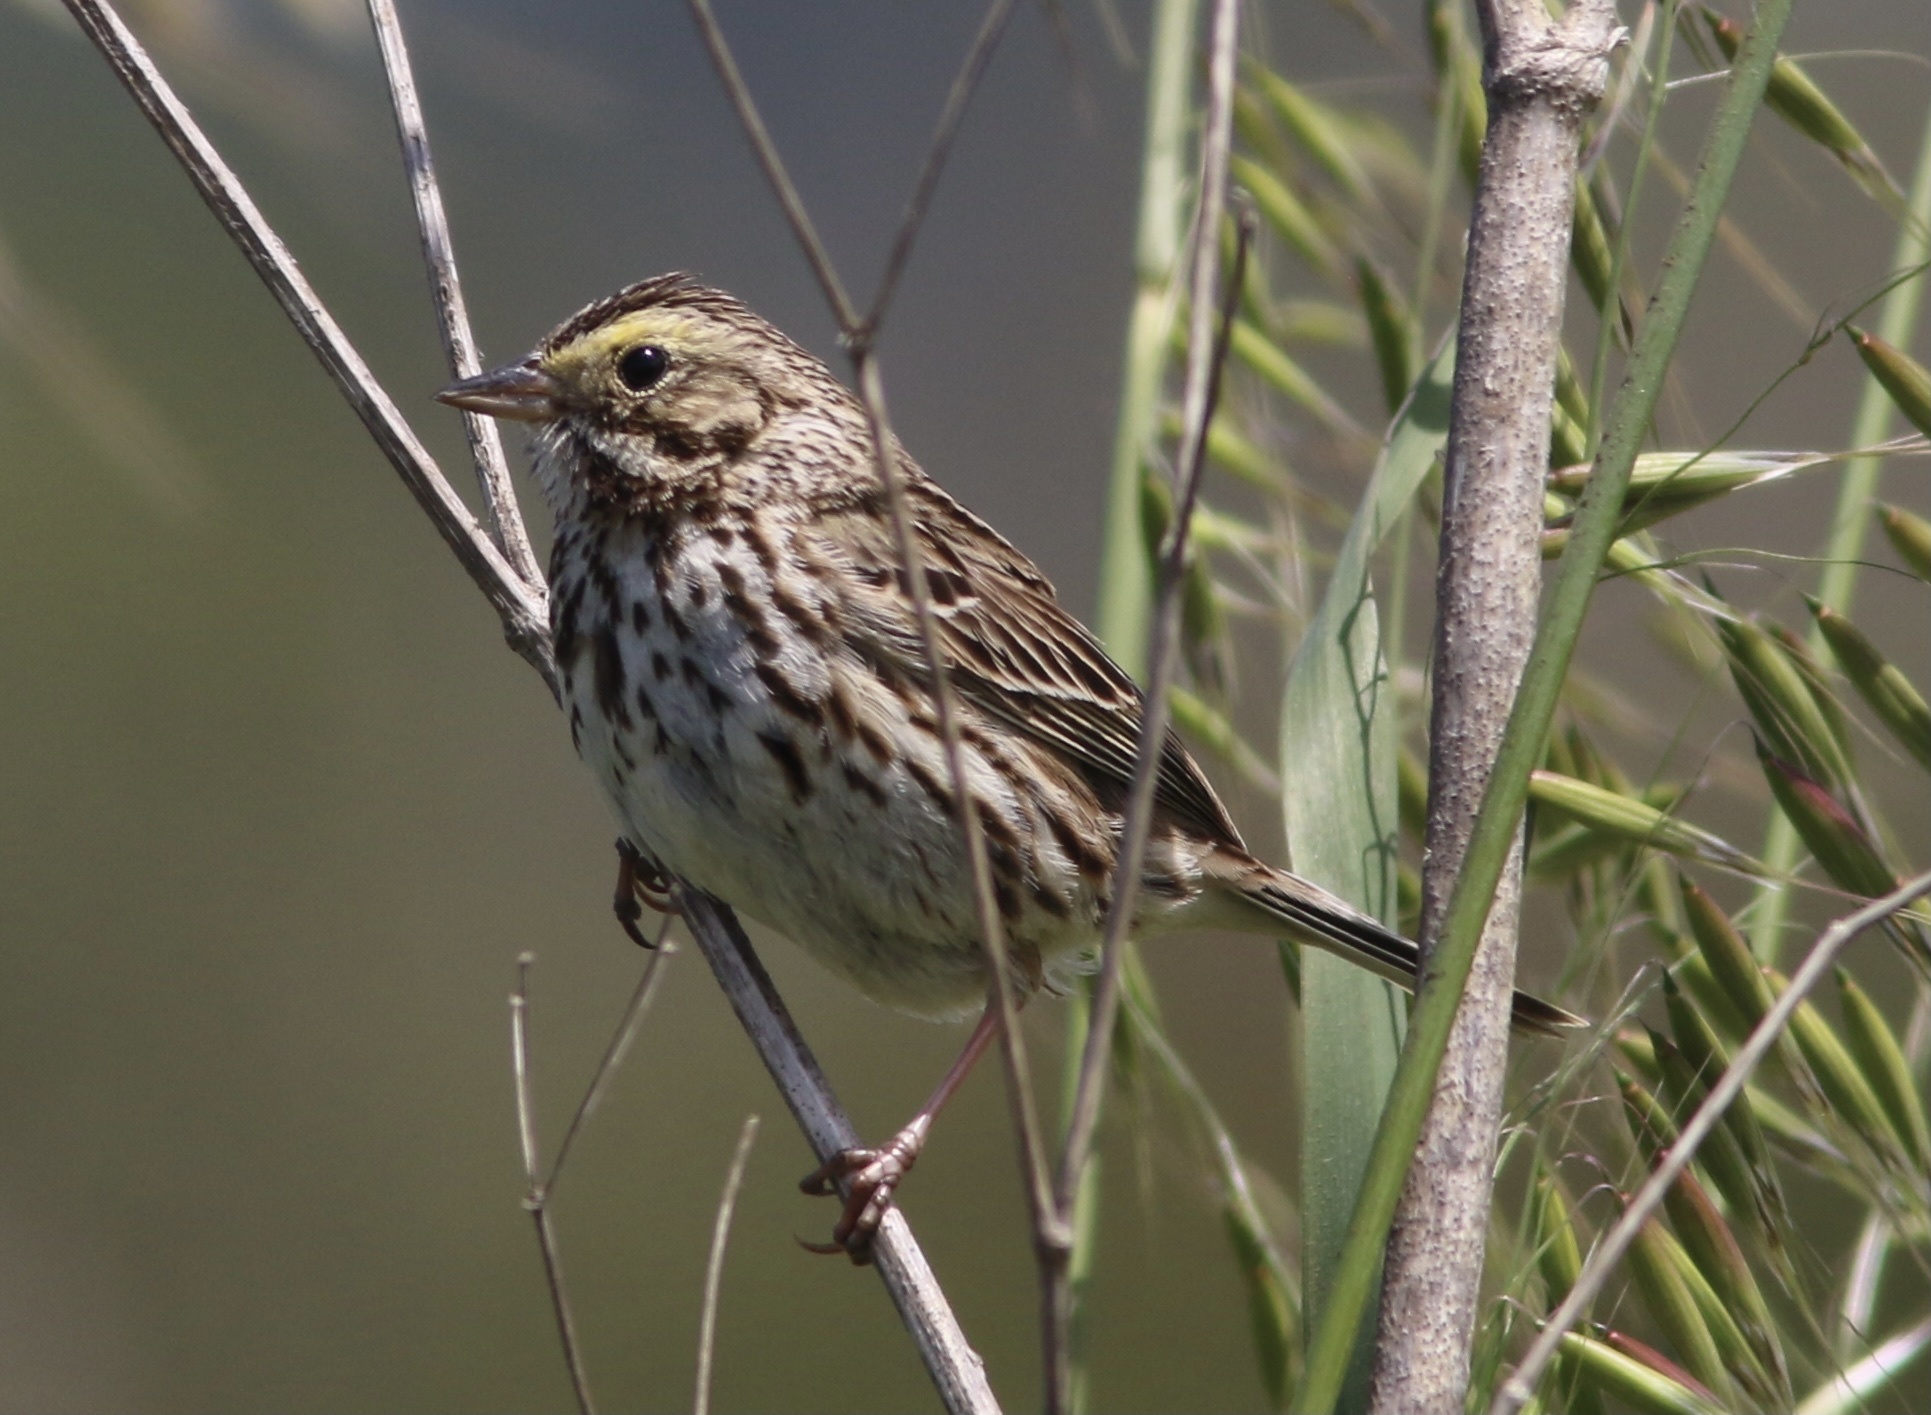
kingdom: Animalia
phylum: Chordata
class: Aves
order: Passeriformes
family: Passerellidae
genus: Passerculus
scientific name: Passerculus sandwichensis
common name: Savannah sparrow
